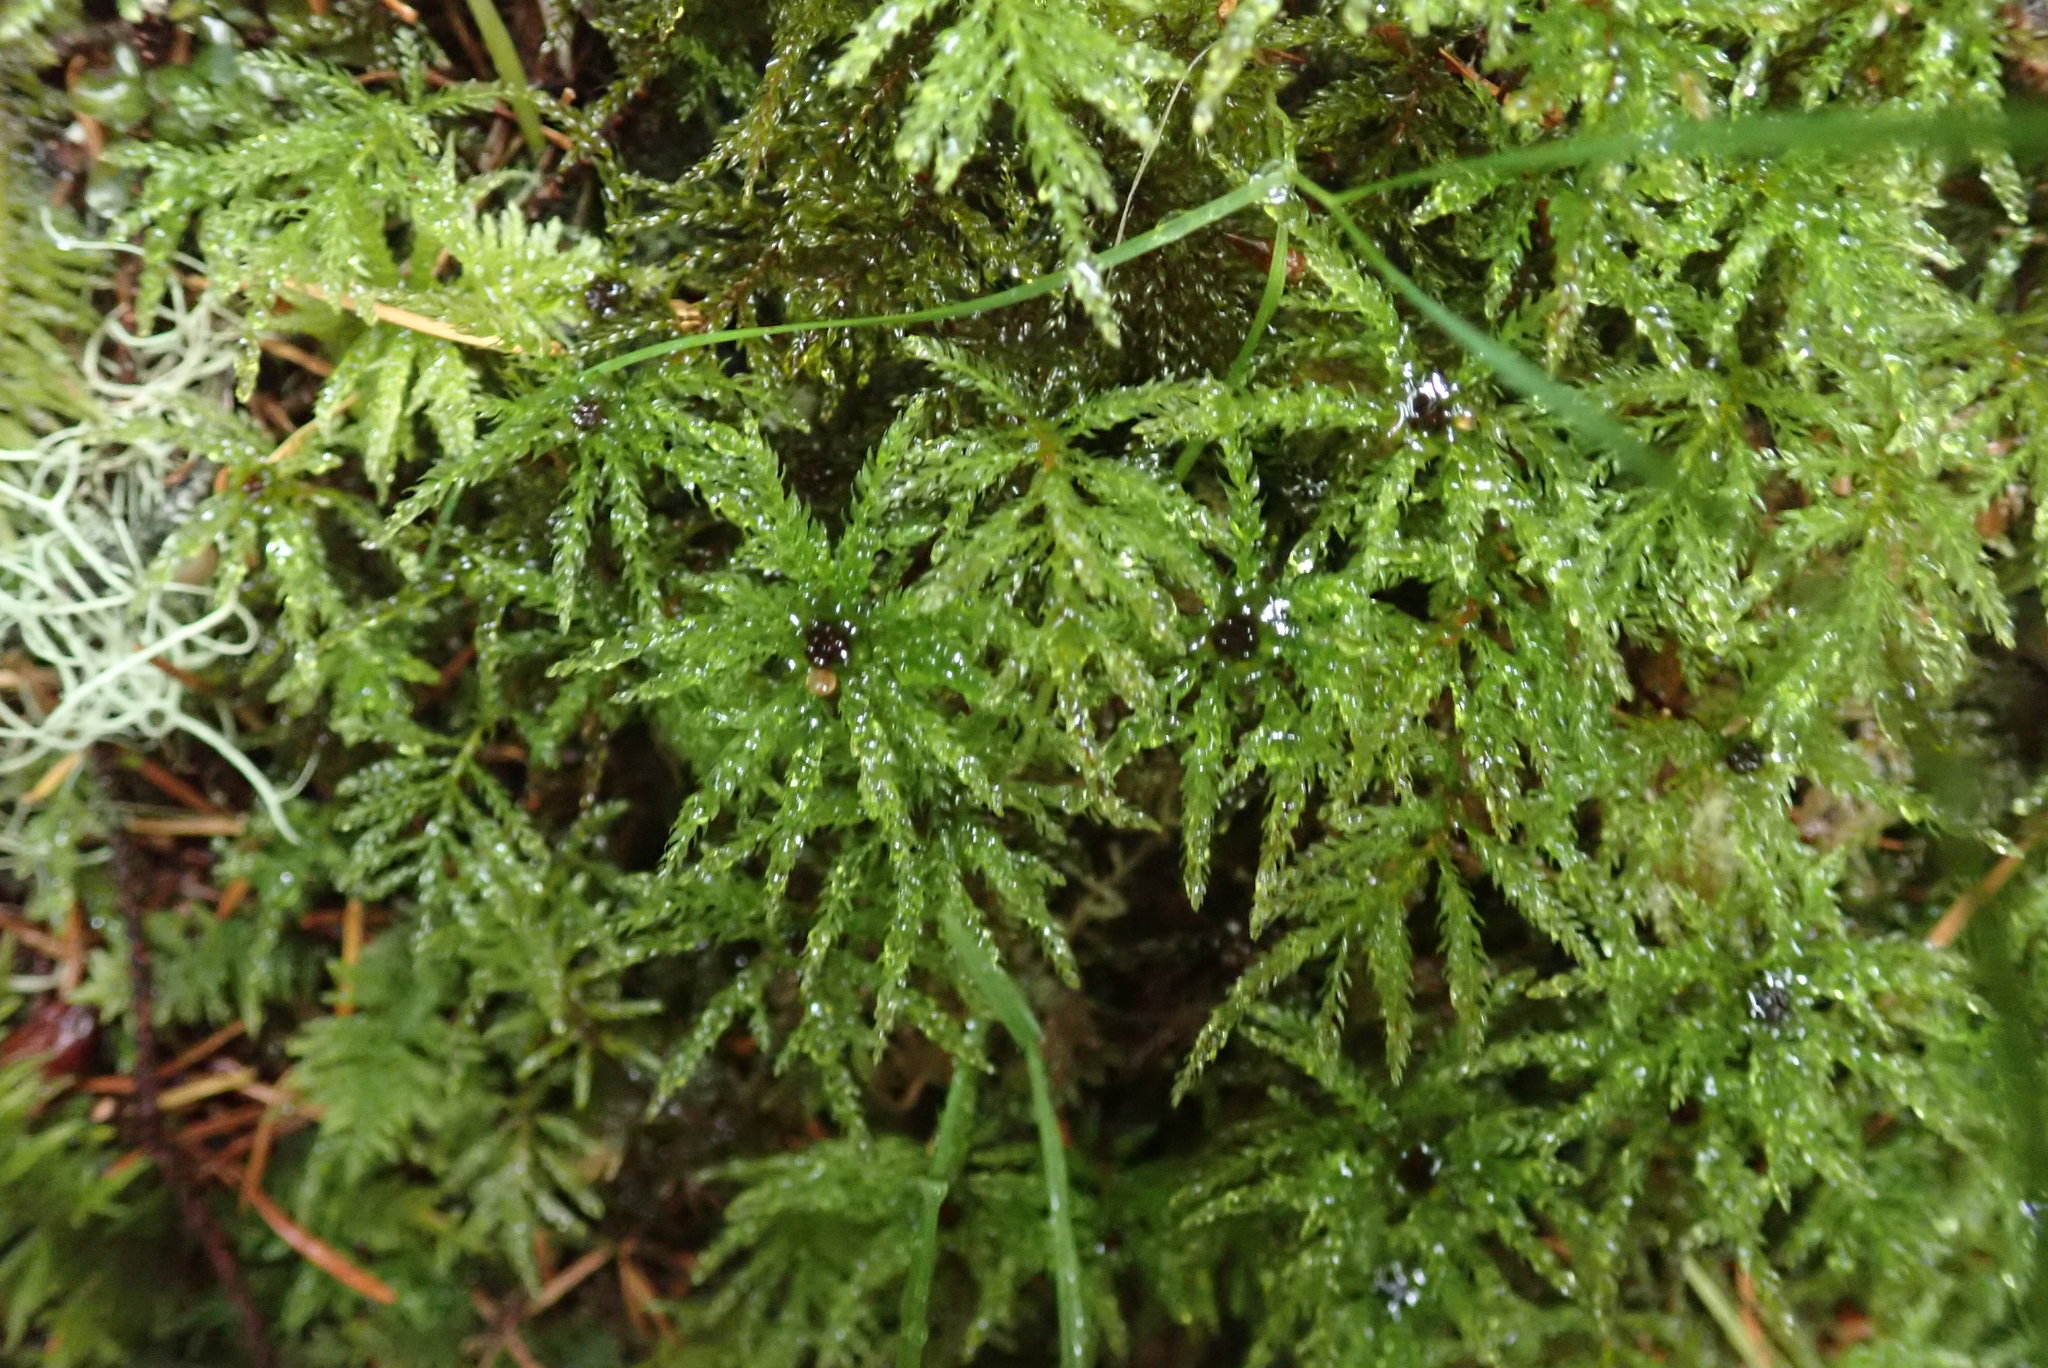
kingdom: Plantae
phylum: Bryophyta
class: Bryopsida
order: Bryales
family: Mniaceae
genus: Leucolepis
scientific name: Leucolepis acanthoneura
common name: Leucolepis umbrella moss
